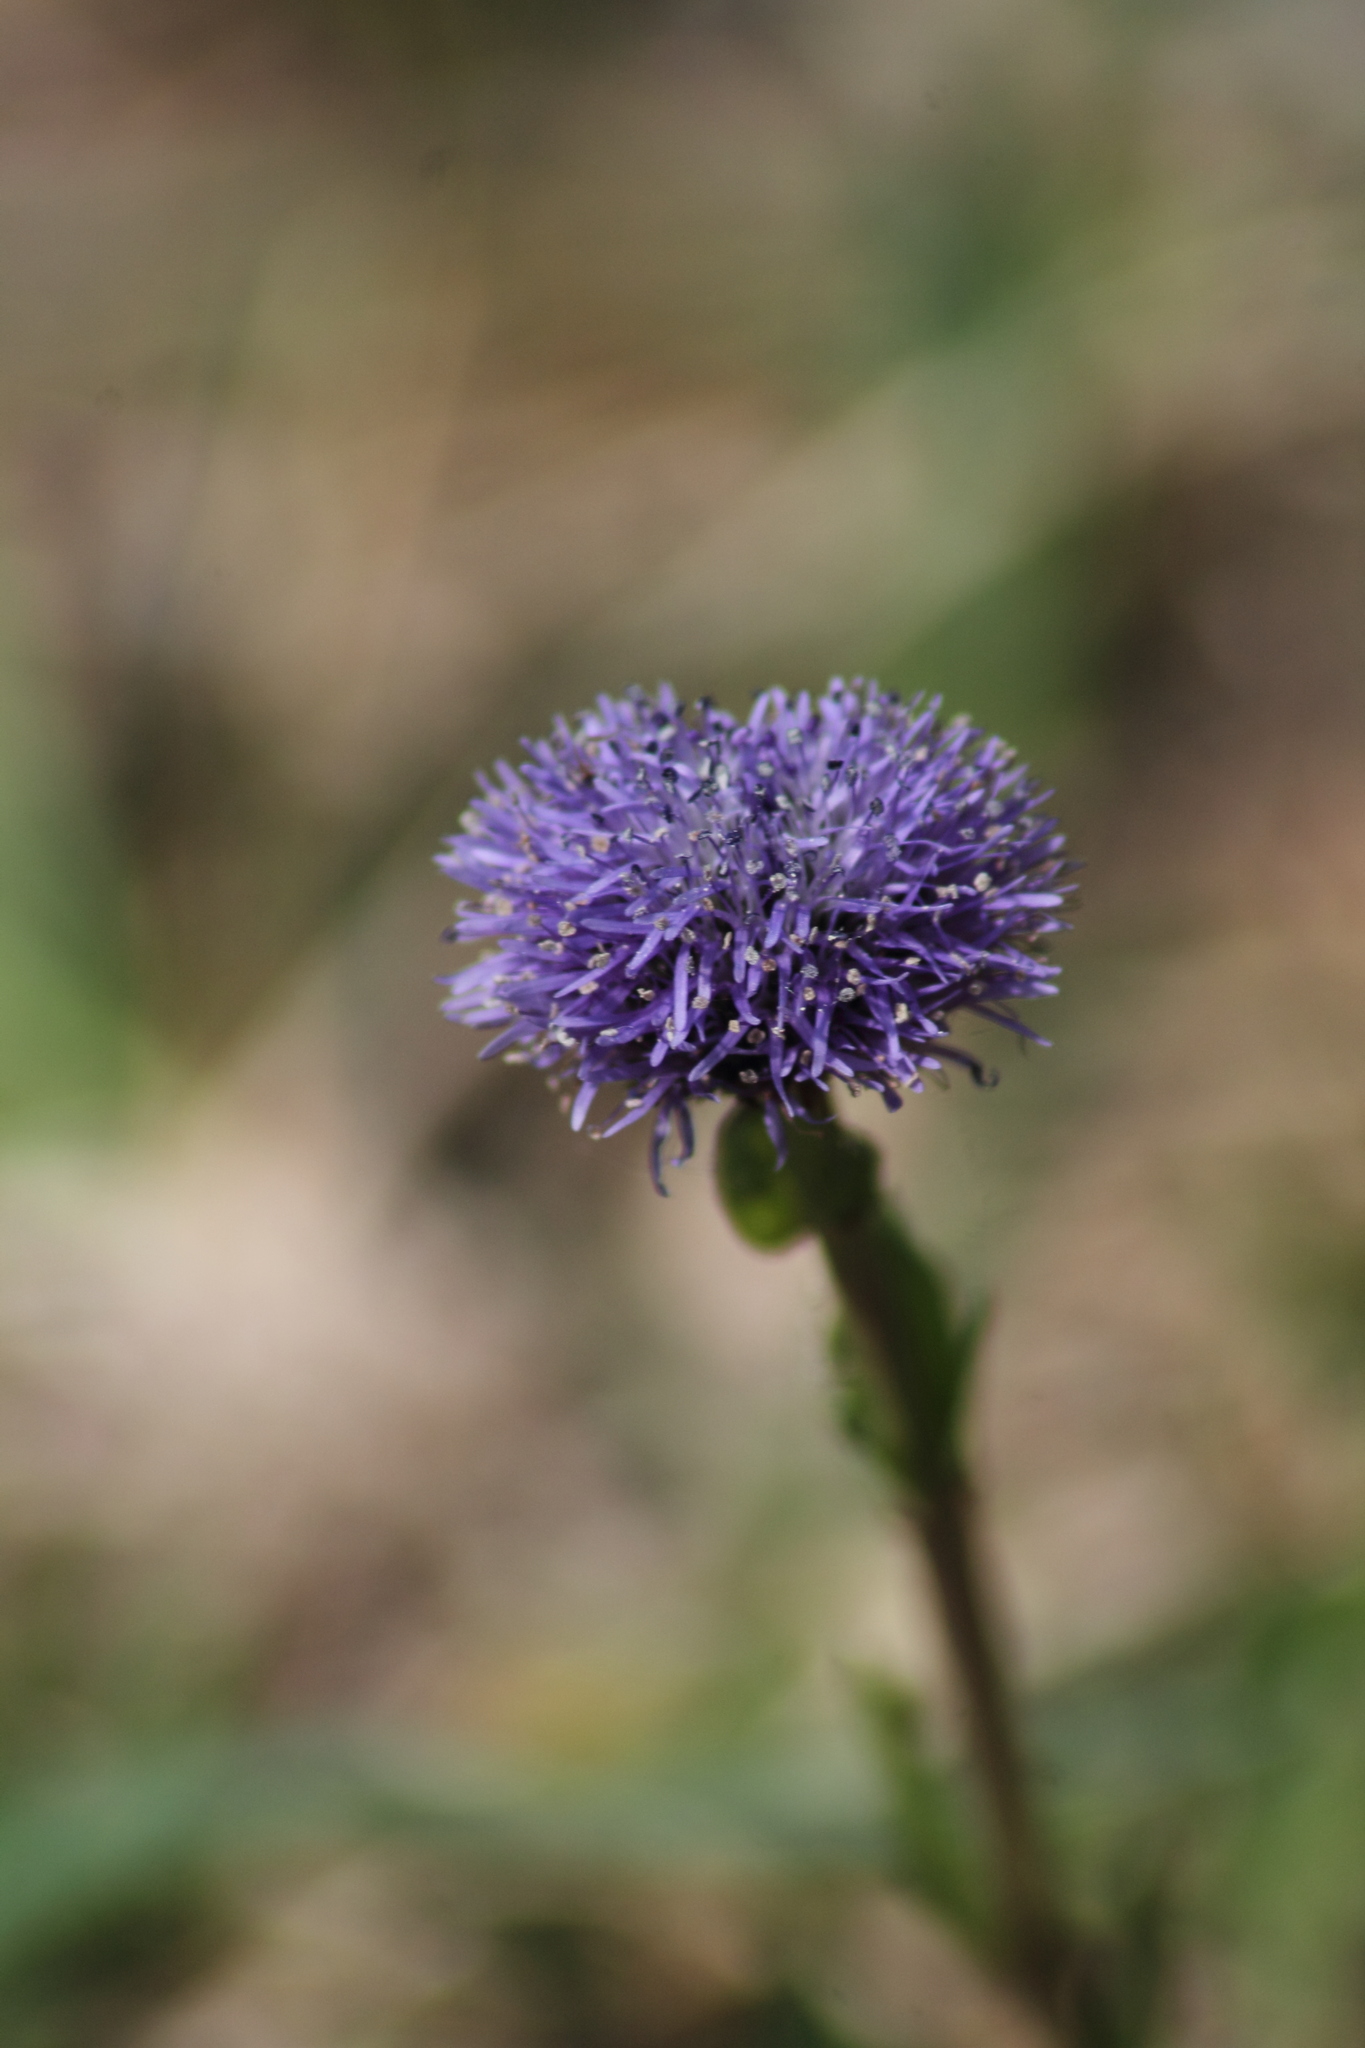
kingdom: Plantae
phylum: Tracheophyta
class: Magnoliopsida
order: Lamiales
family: Plantaginaceae
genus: Globularia
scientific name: Globularia bisnagarica
